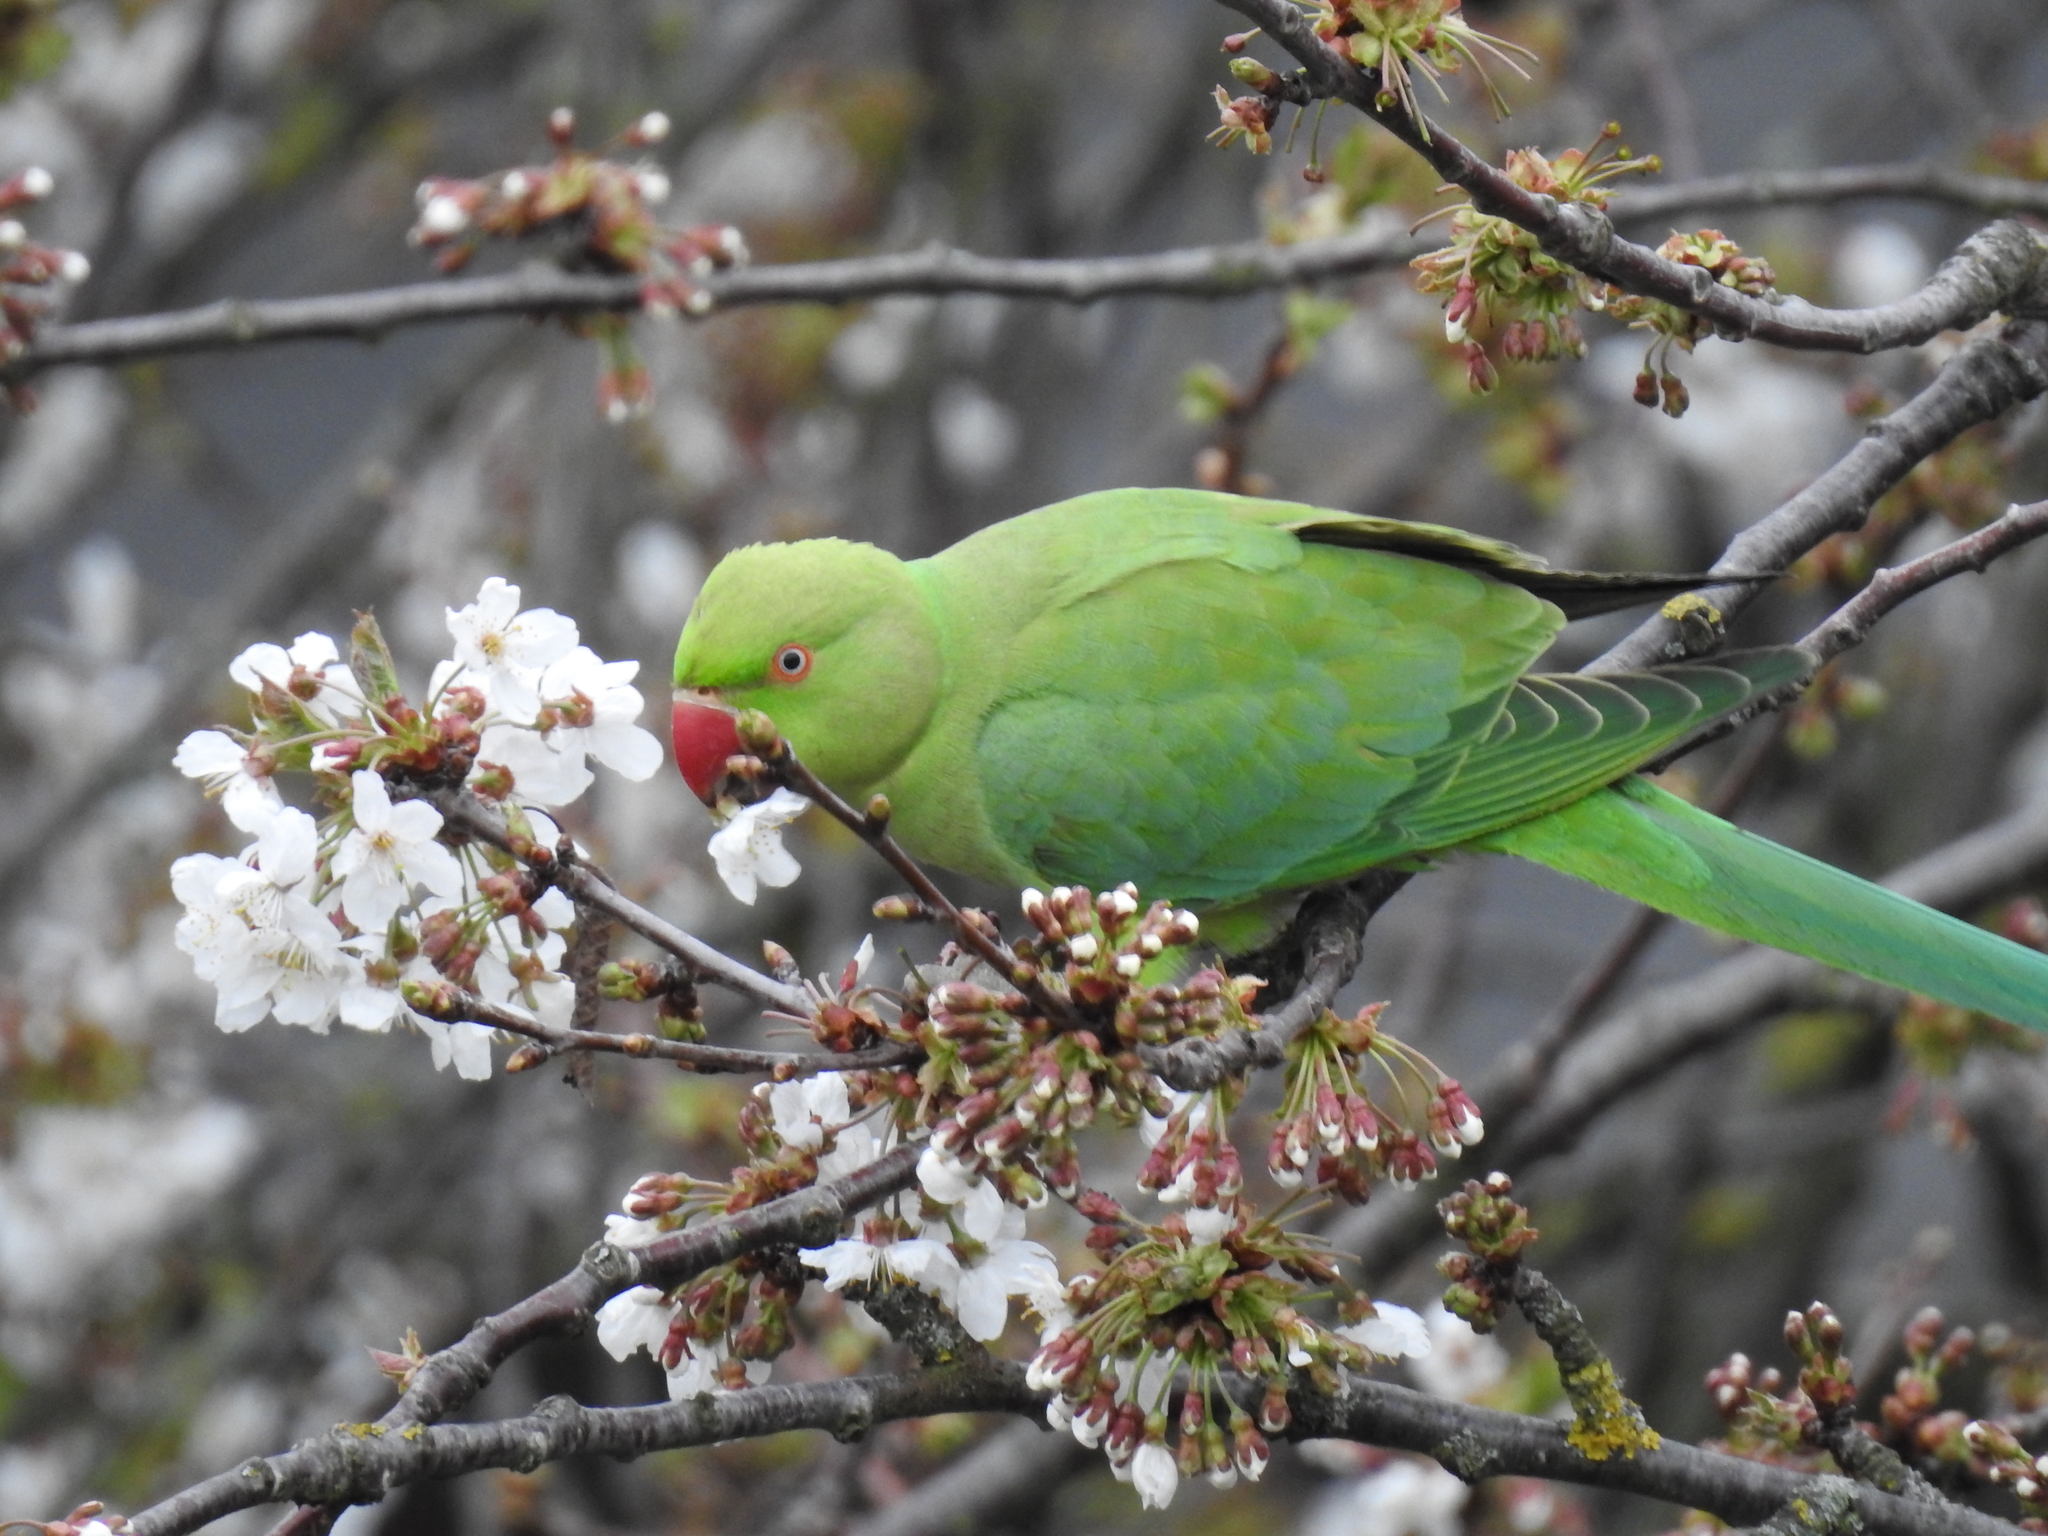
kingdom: Animalia
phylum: Chordata
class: Aves
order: Psittaciformes
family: Psittacidae
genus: Psittacula
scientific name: Psittacula krameri
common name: Rose-ringed parakeet
